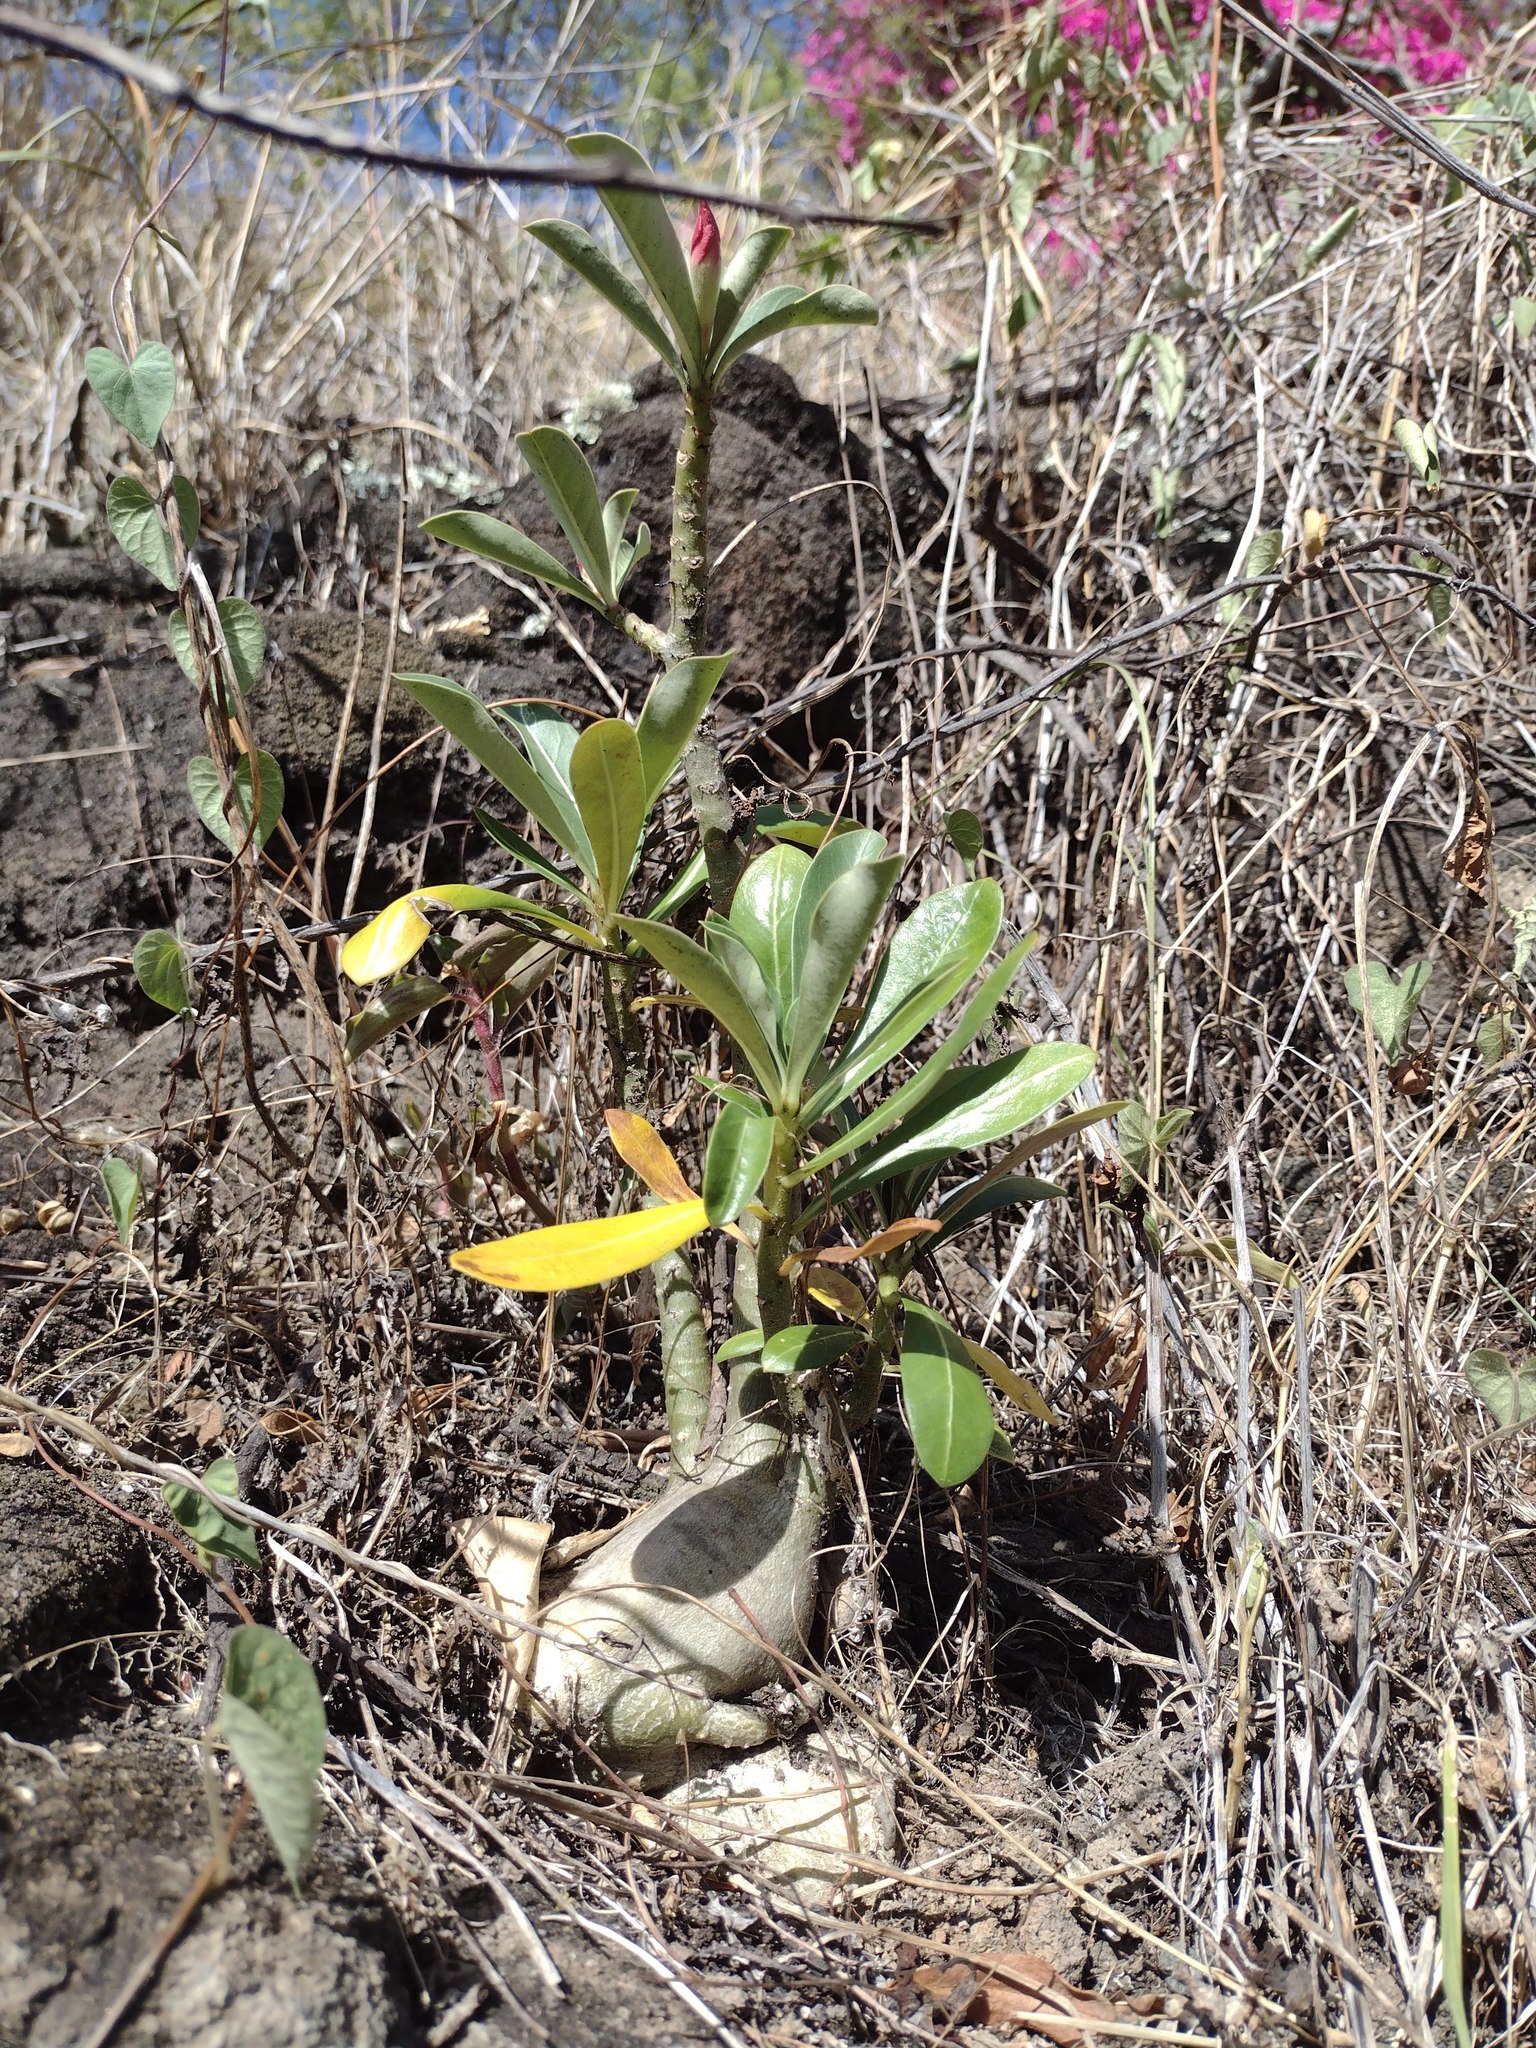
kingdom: Plantae
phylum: Tracheophyta
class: Magnoliopsida
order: Gentianales
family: Apocynaceae
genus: Adenium
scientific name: Adenium obesum
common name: Desert-rose
